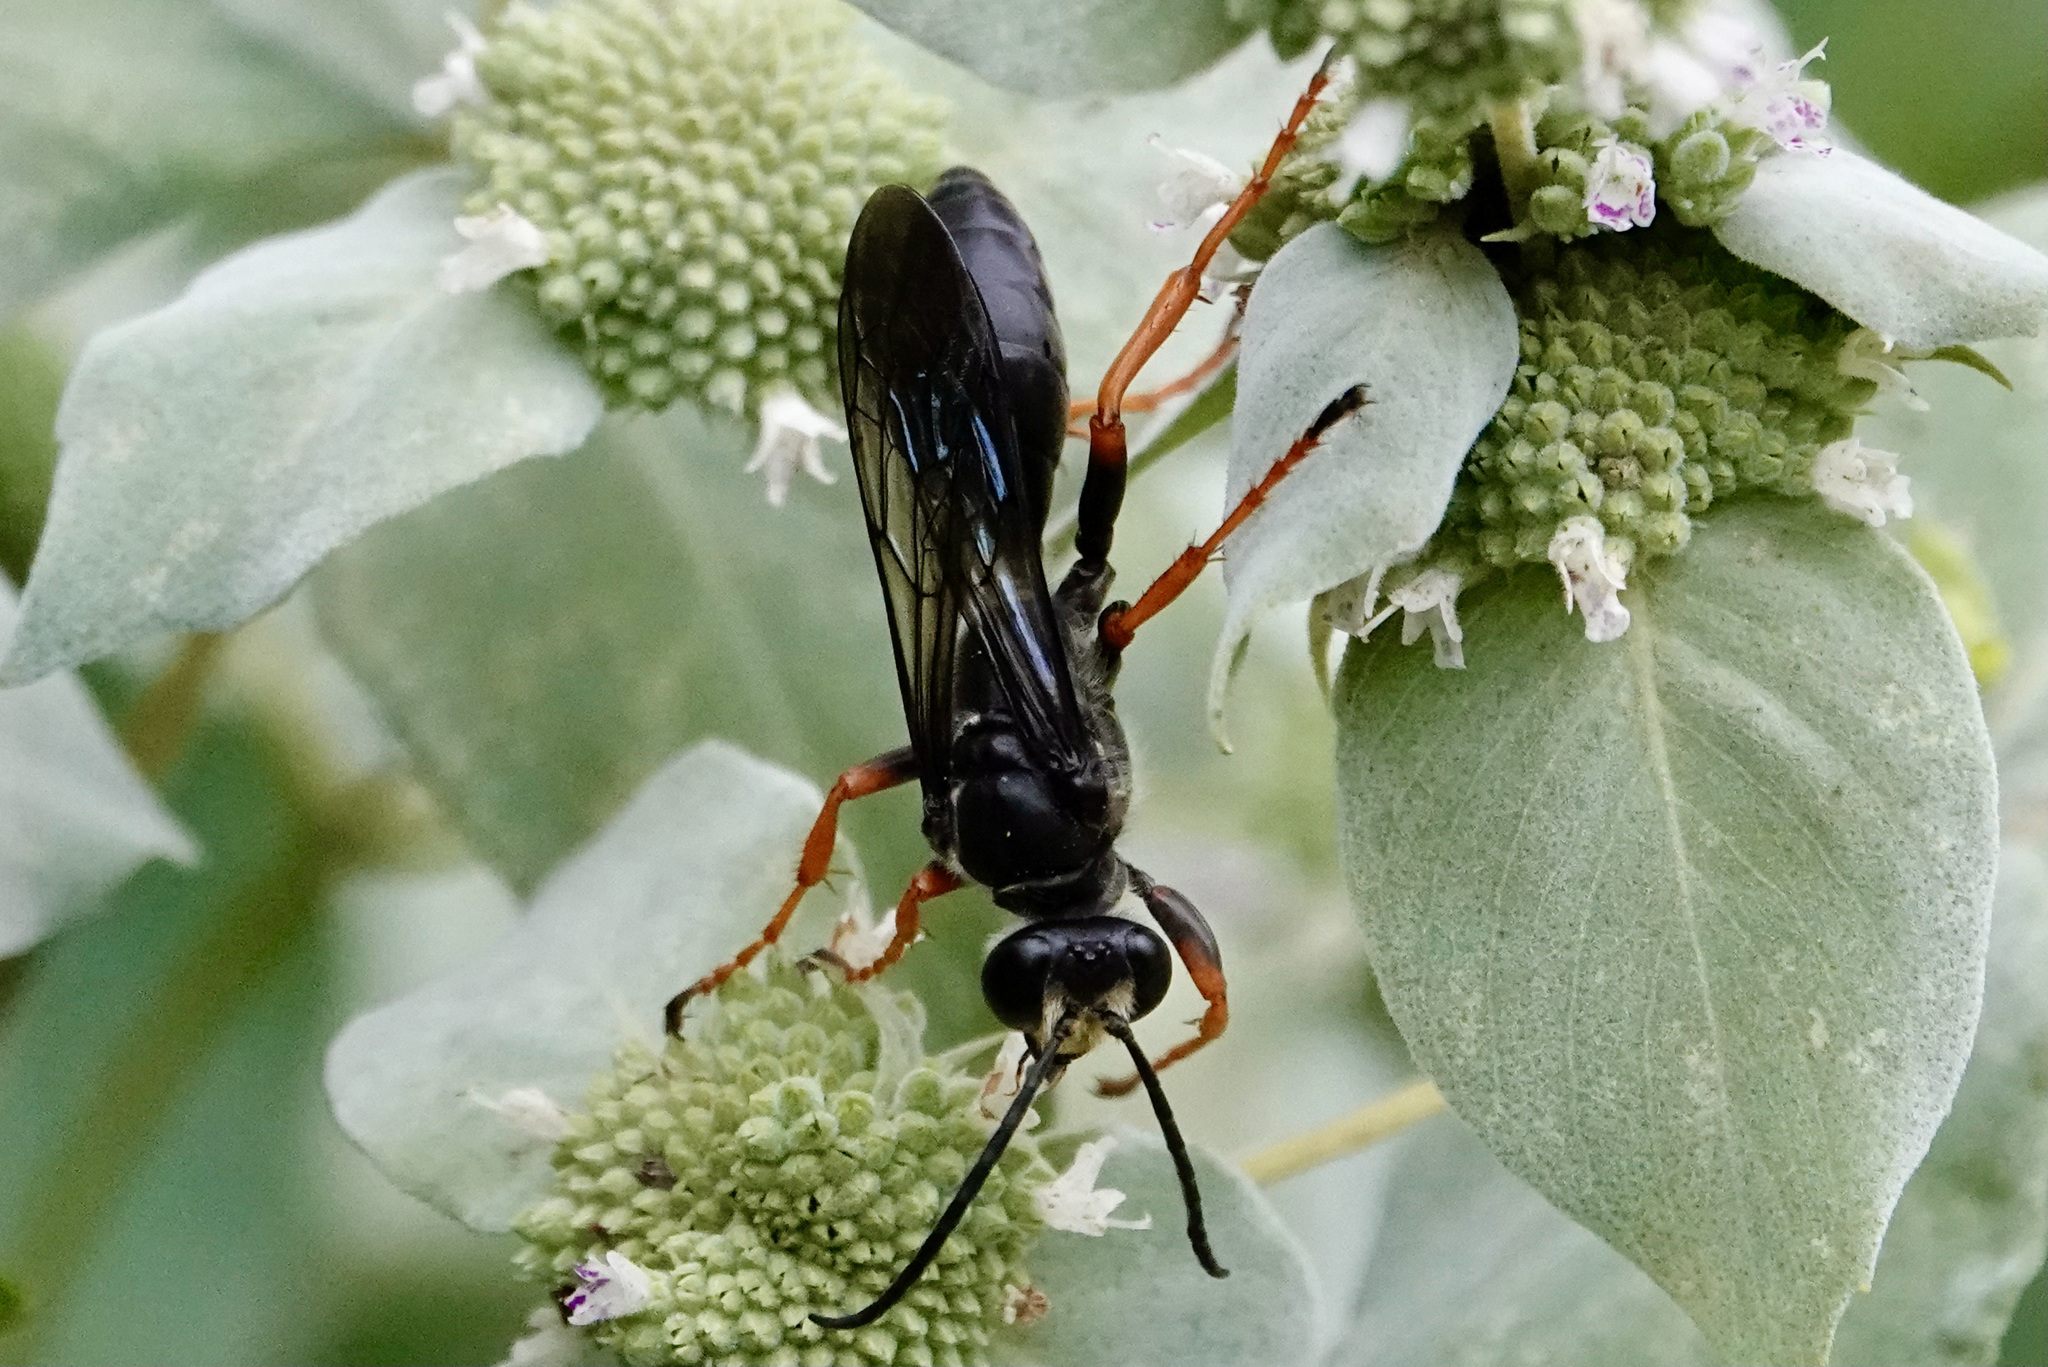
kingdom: Animalia
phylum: Arthropoda
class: Insecta
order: Hymenoptera
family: Sphecidae
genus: Sphex
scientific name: Sphex nudus
